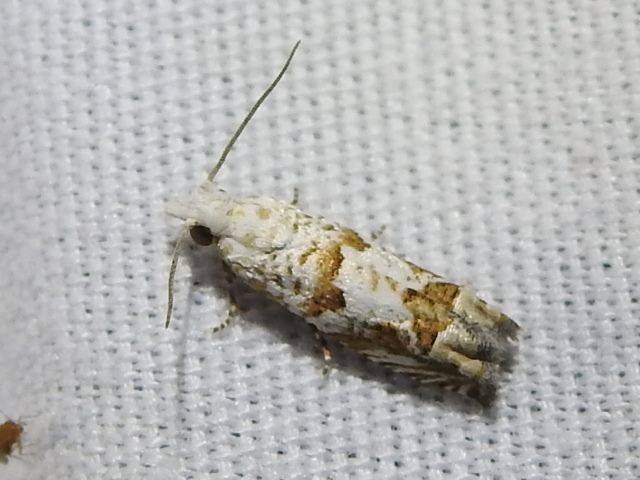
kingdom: Animalia
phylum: Arthropoda
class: Insecta
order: Lepidoptera
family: Tortricidae
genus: Pelochrista
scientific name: Pelochrista matutina
